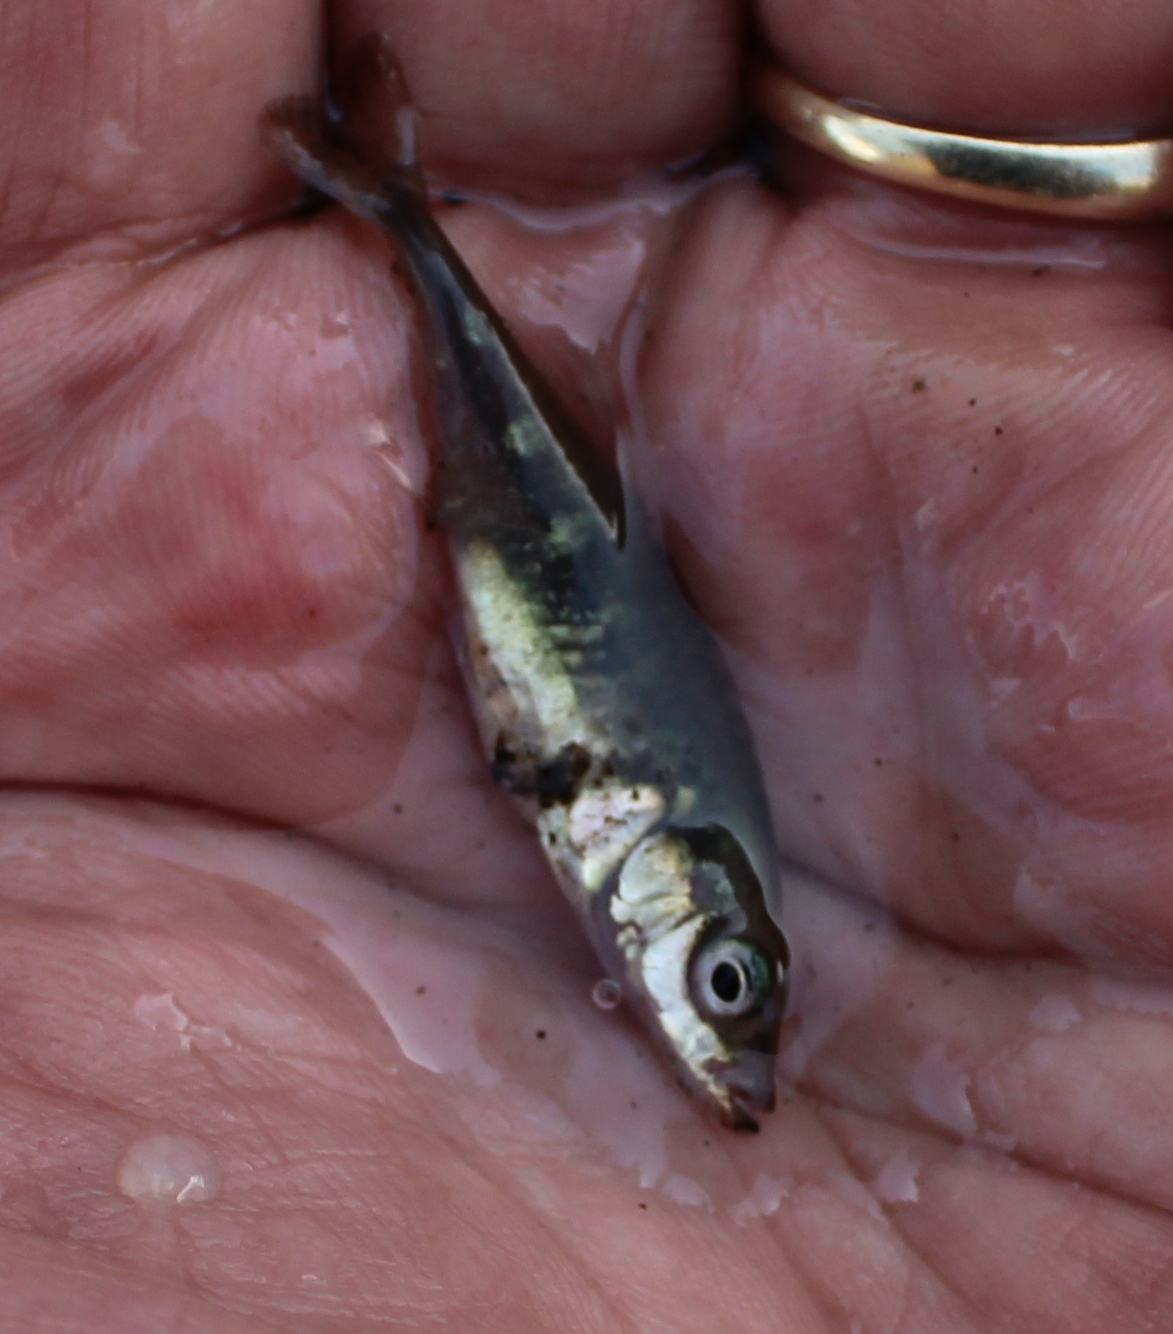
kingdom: Animalia
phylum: Chordata
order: Gasterosteiformes
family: Gasterosteidae
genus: Gasterosteus
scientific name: Gasterosteus aculeatus
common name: Three-spined stickleback
